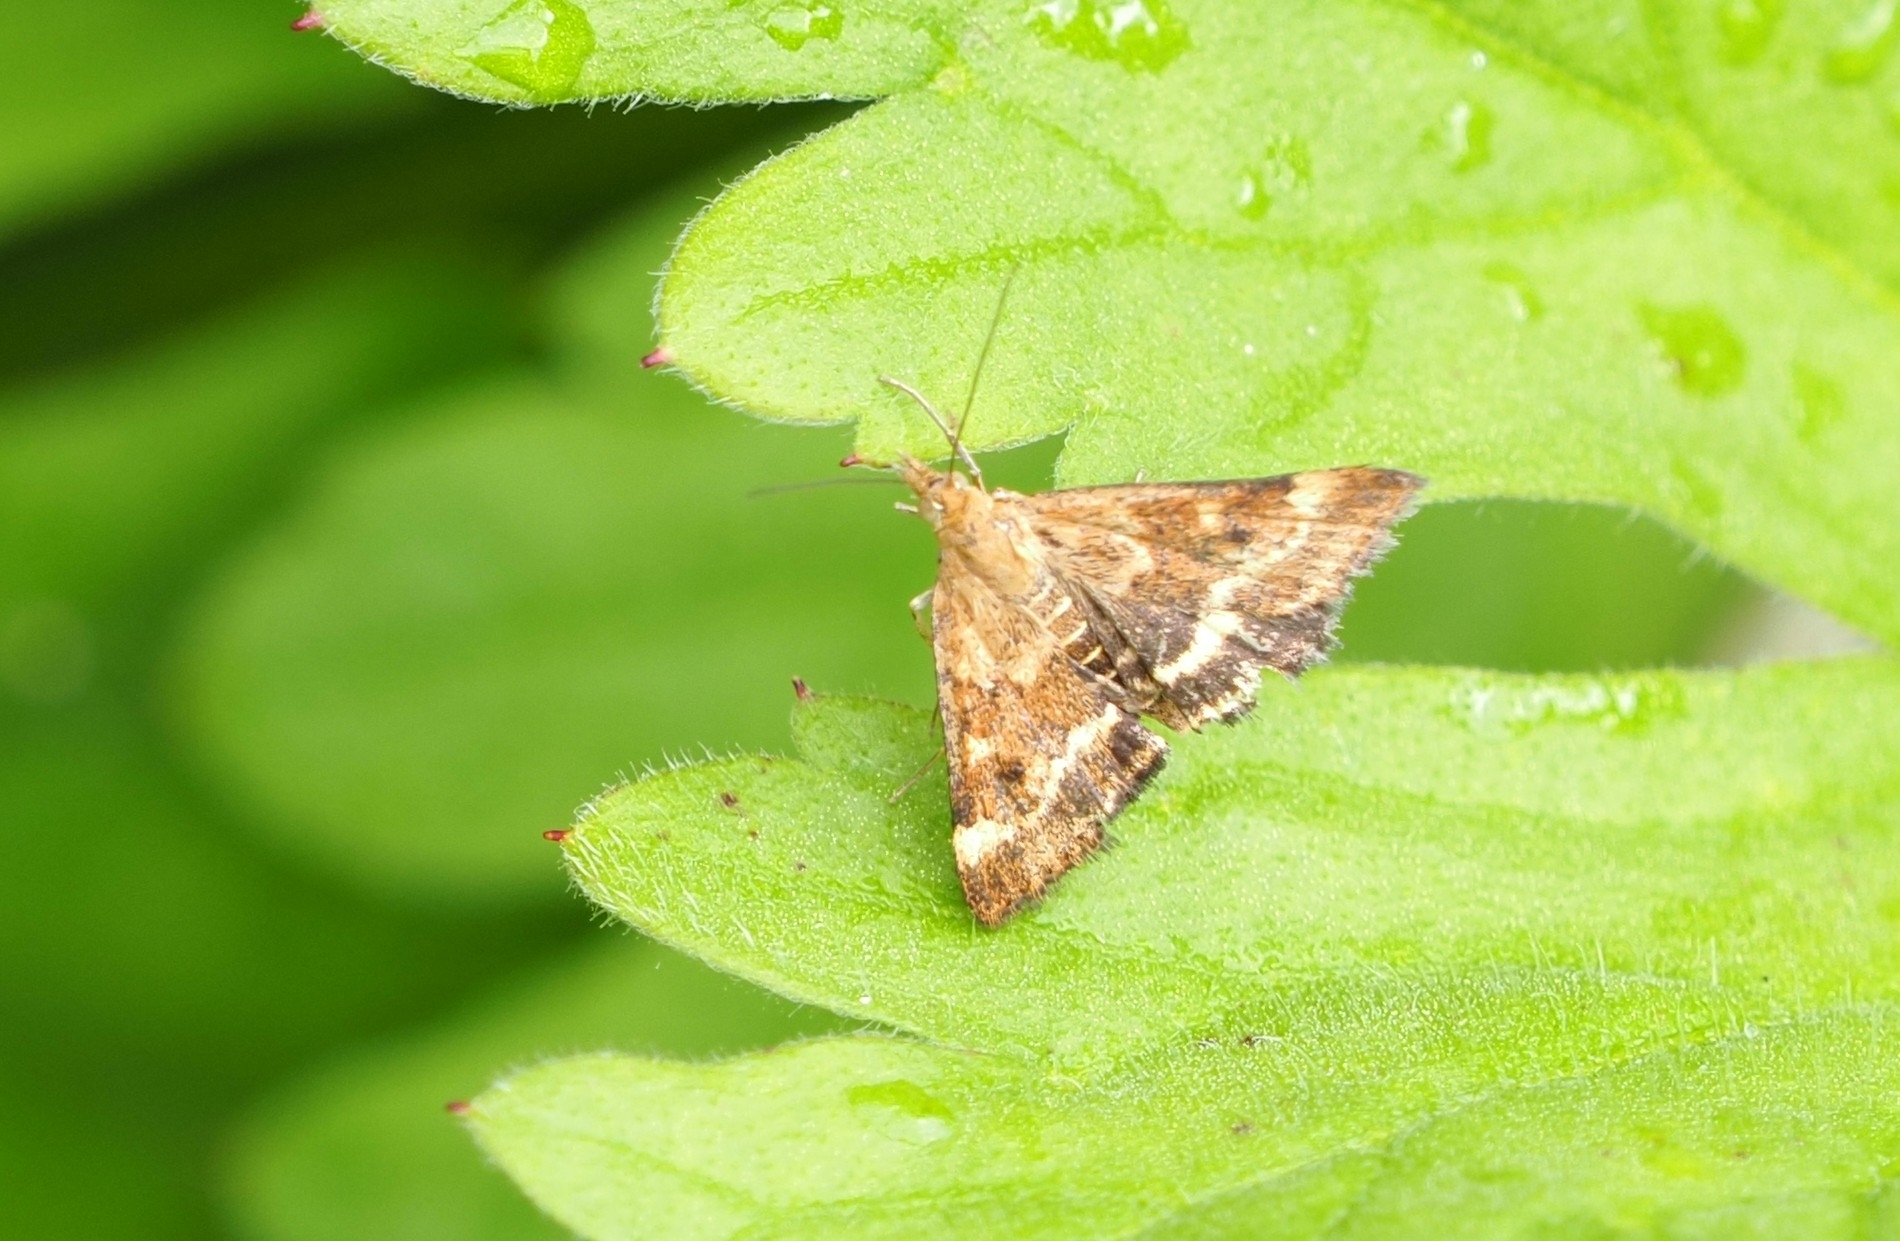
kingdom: Animalia
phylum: Arthropoda
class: Insecta
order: Lepidoptera
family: Crambidae
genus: Pyrausta
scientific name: Pyrausta despicata
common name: Straw-barred pearl
